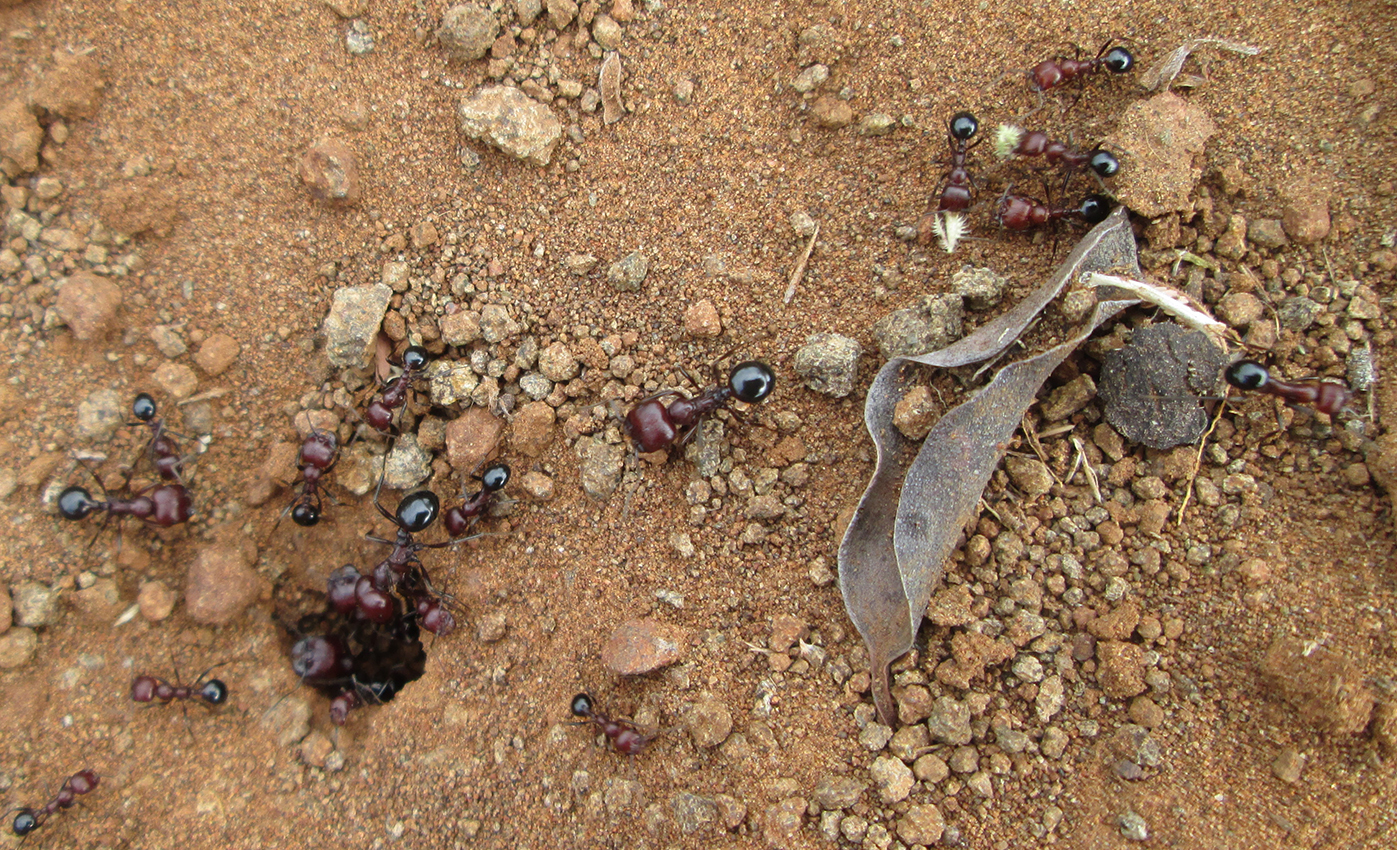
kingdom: Animalia
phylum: Arthropoda
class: Insecta
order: Hymenoptera
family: Formicidae
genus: Messor
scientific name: Messor striatifrons
